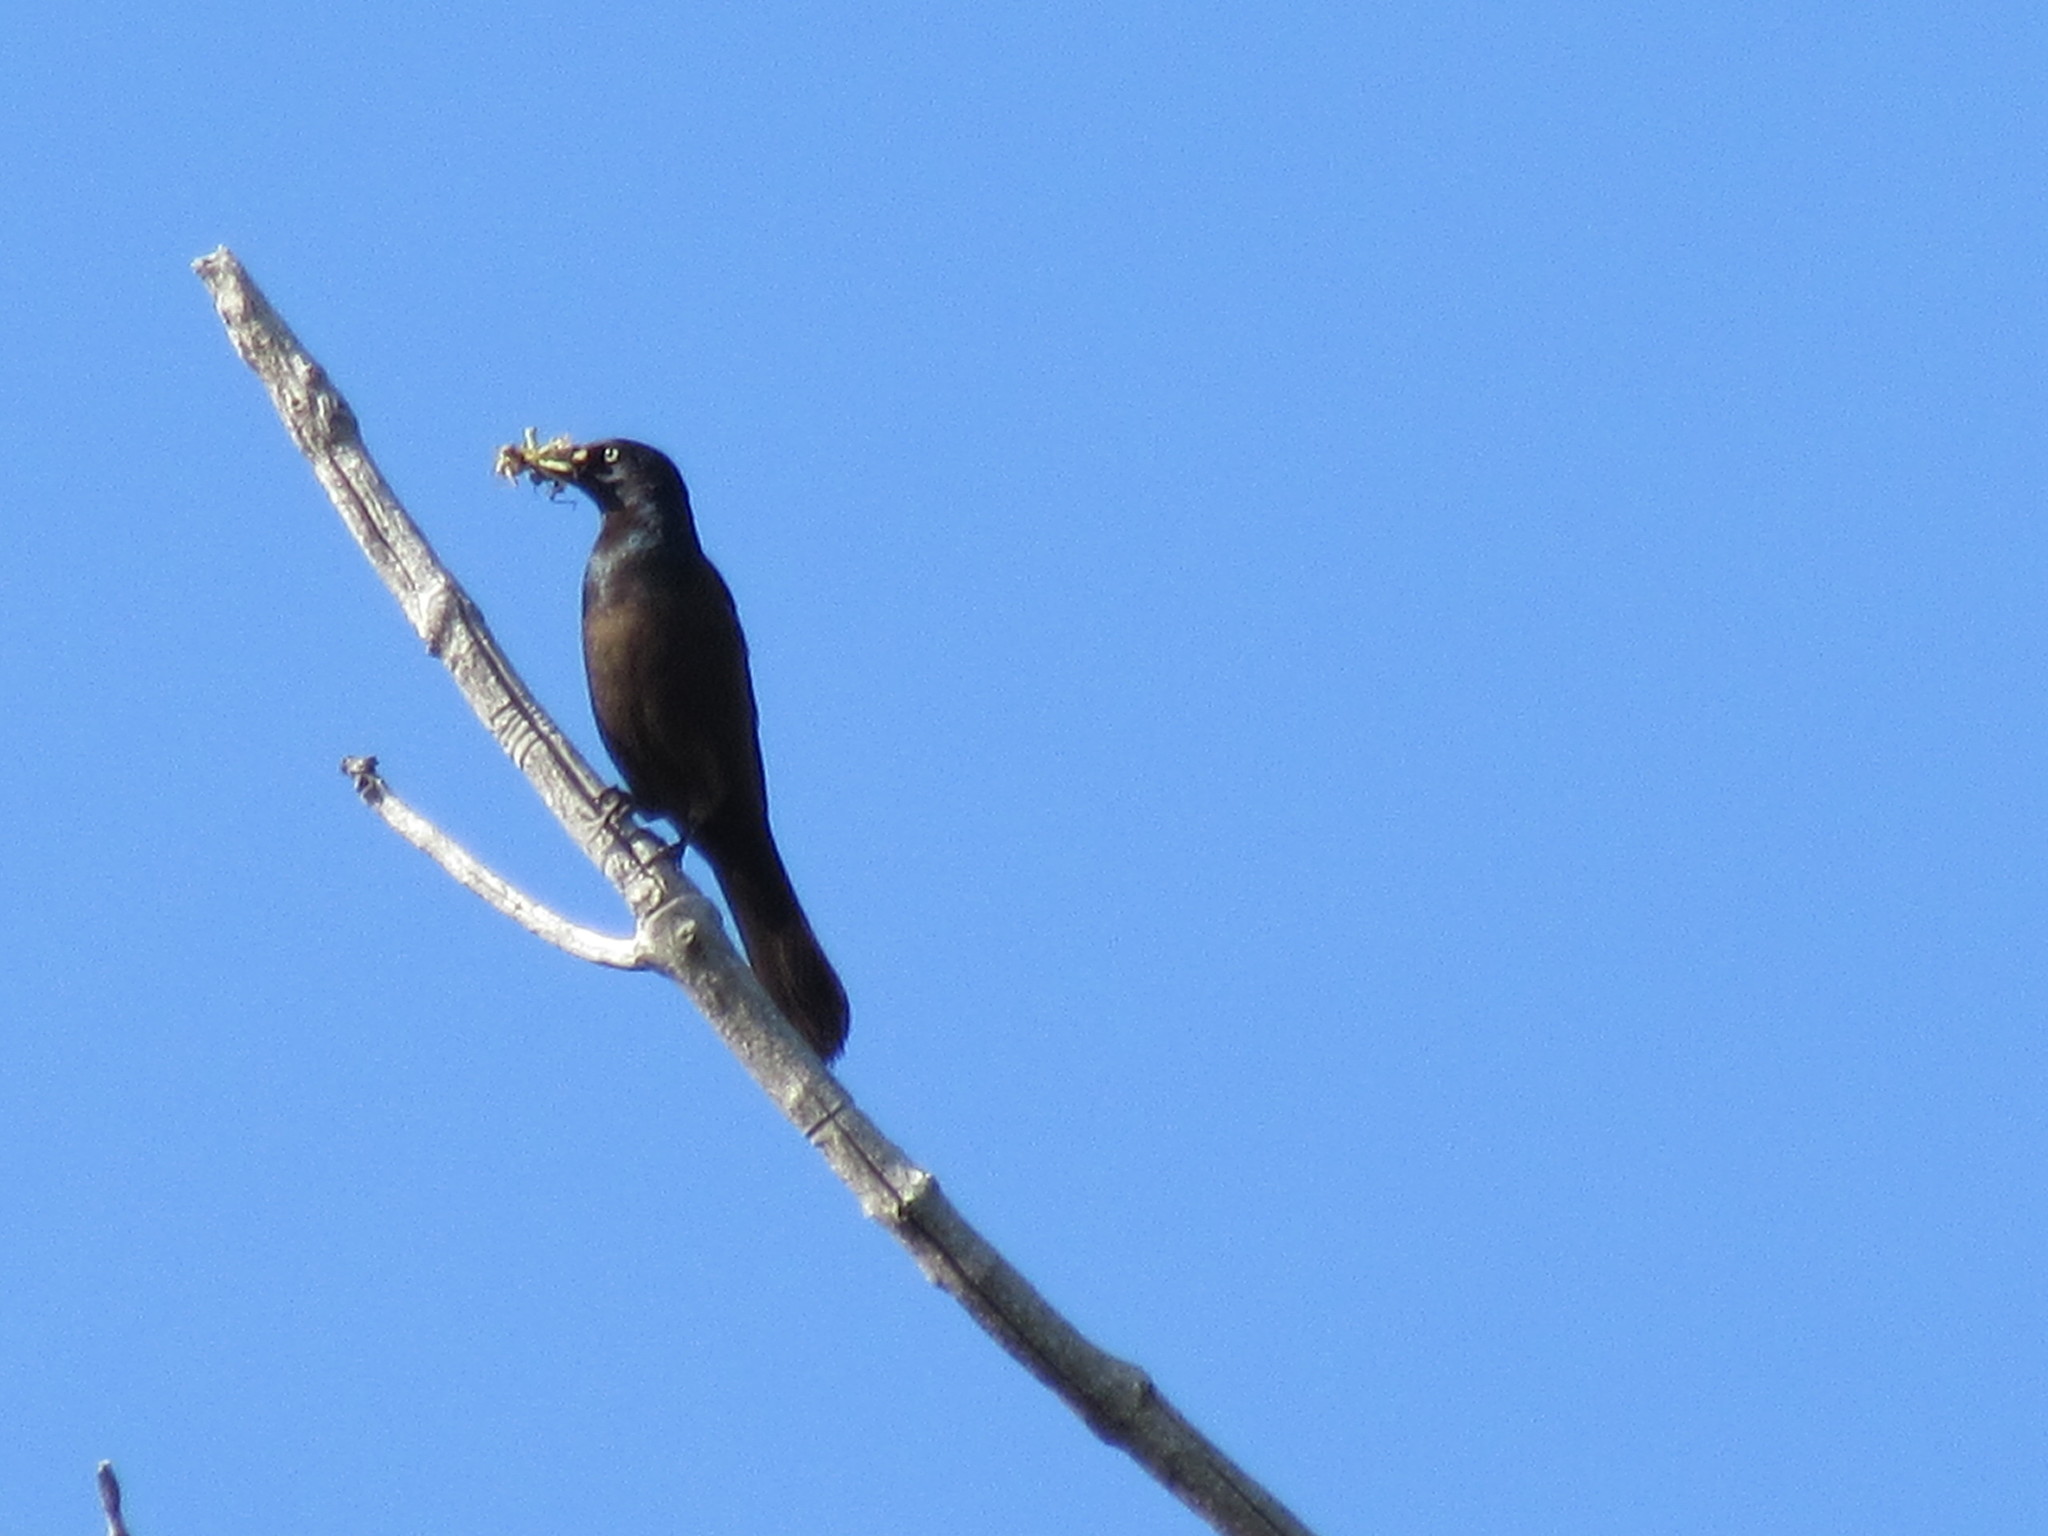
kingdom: Animalia
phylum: Chordata
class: Aves
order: Passeriformes
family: Icteridae
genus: Quiscalus
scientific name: Quiscalus quiscula
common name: Common grackle
